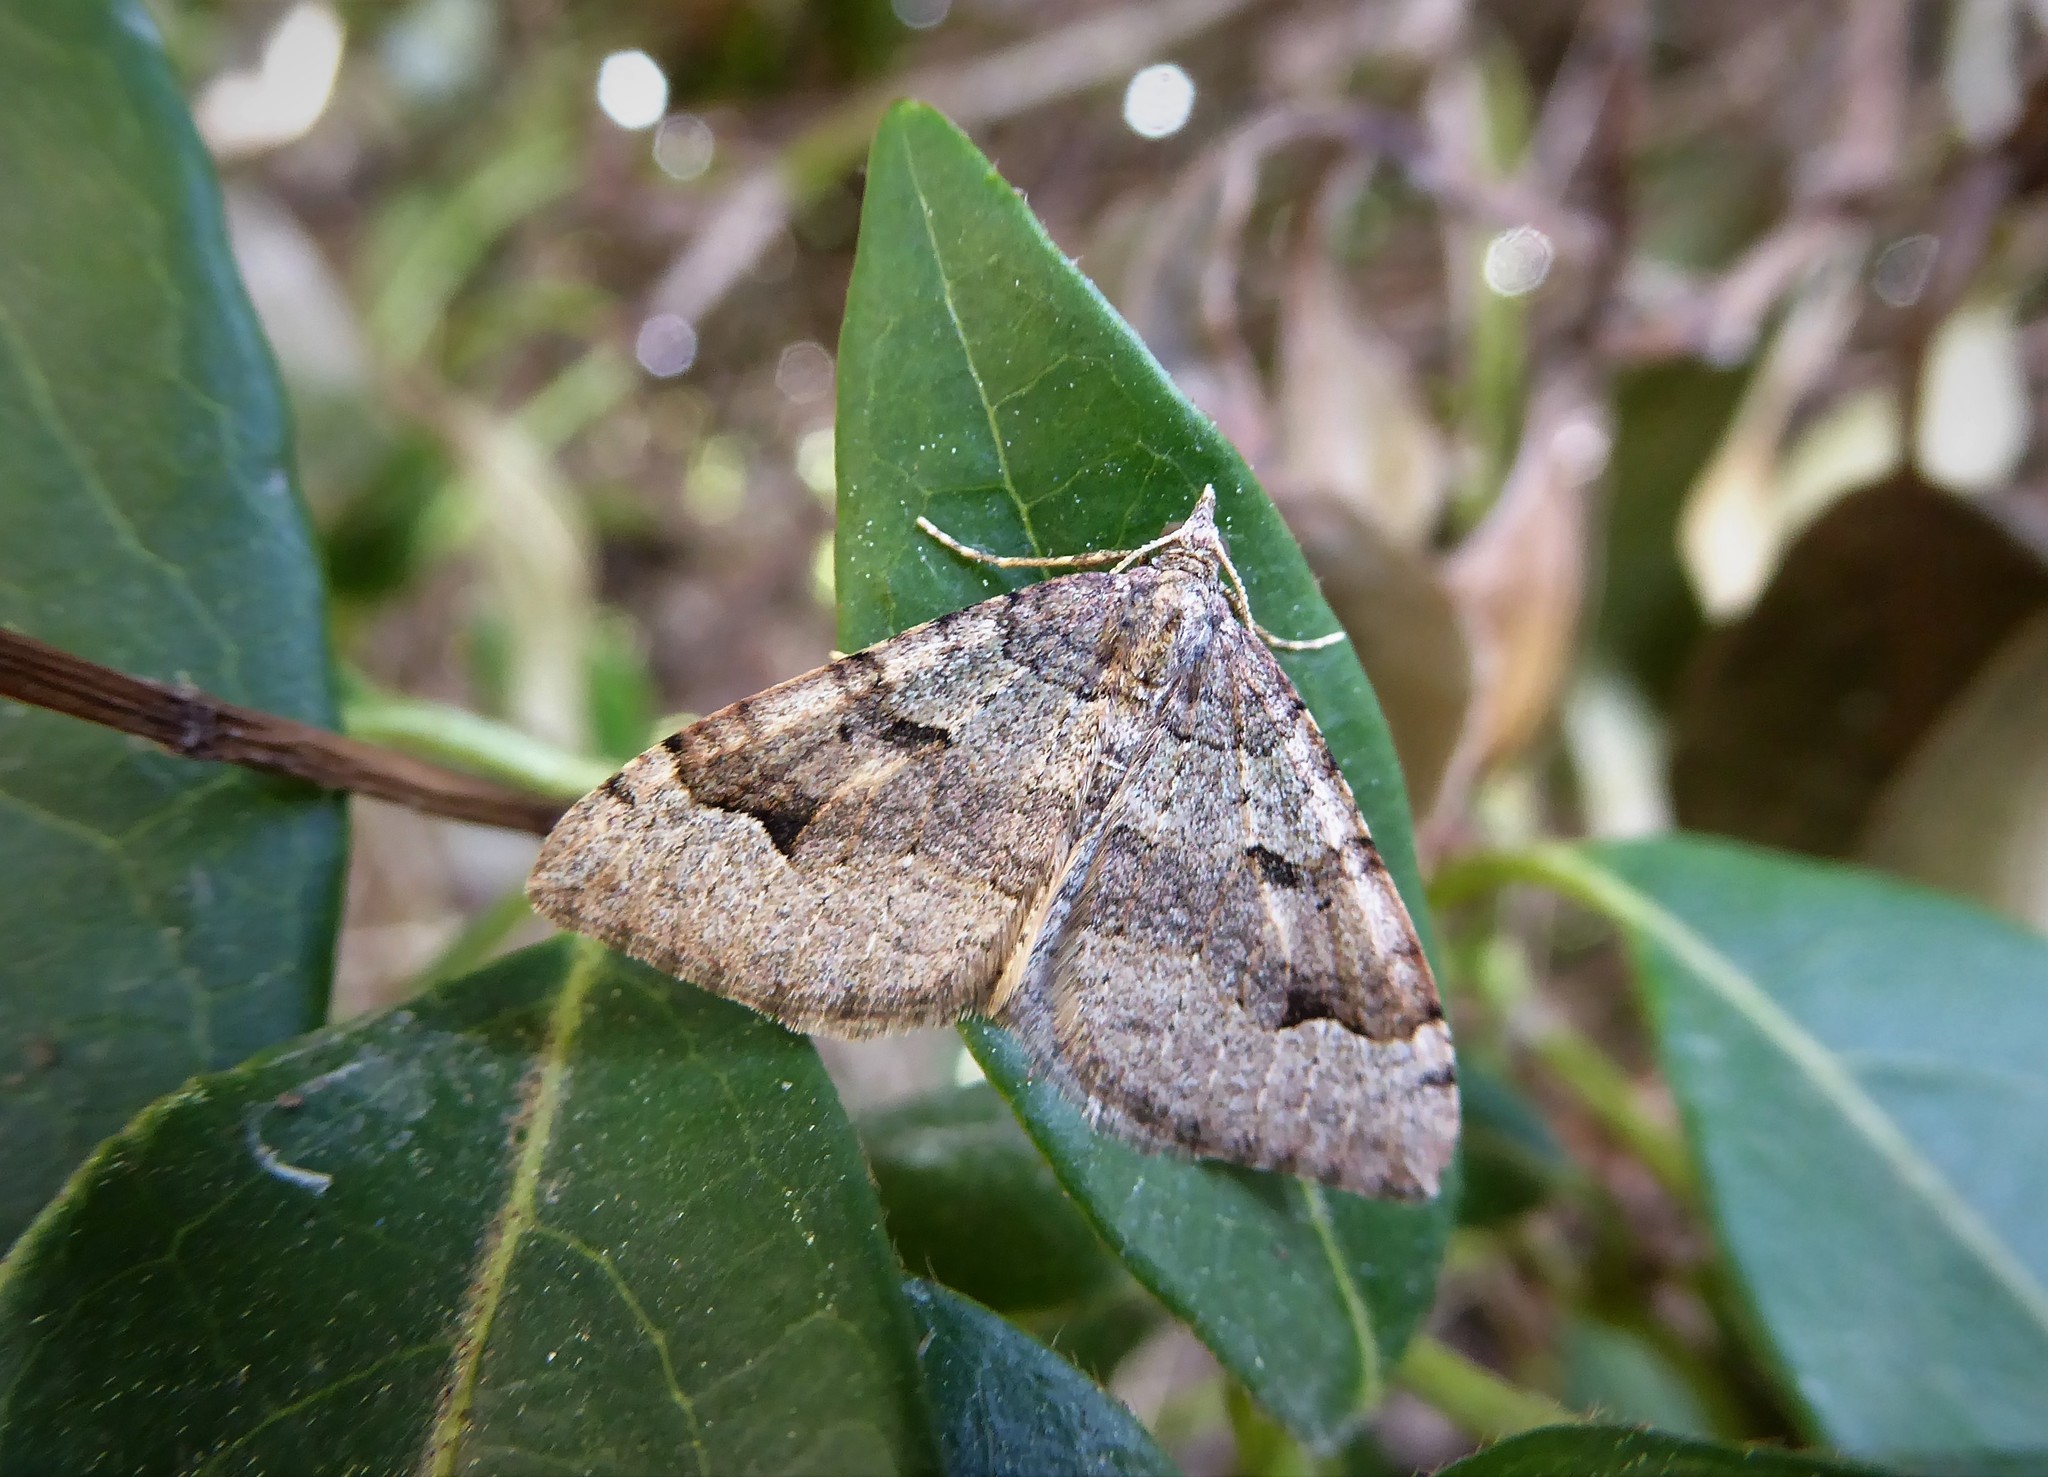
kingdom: Animalia
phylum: Arthropoda
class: Insecta
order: Lepidoptera
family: Geometridae
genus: Epyaxa
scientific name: Epyaxa rosearia
